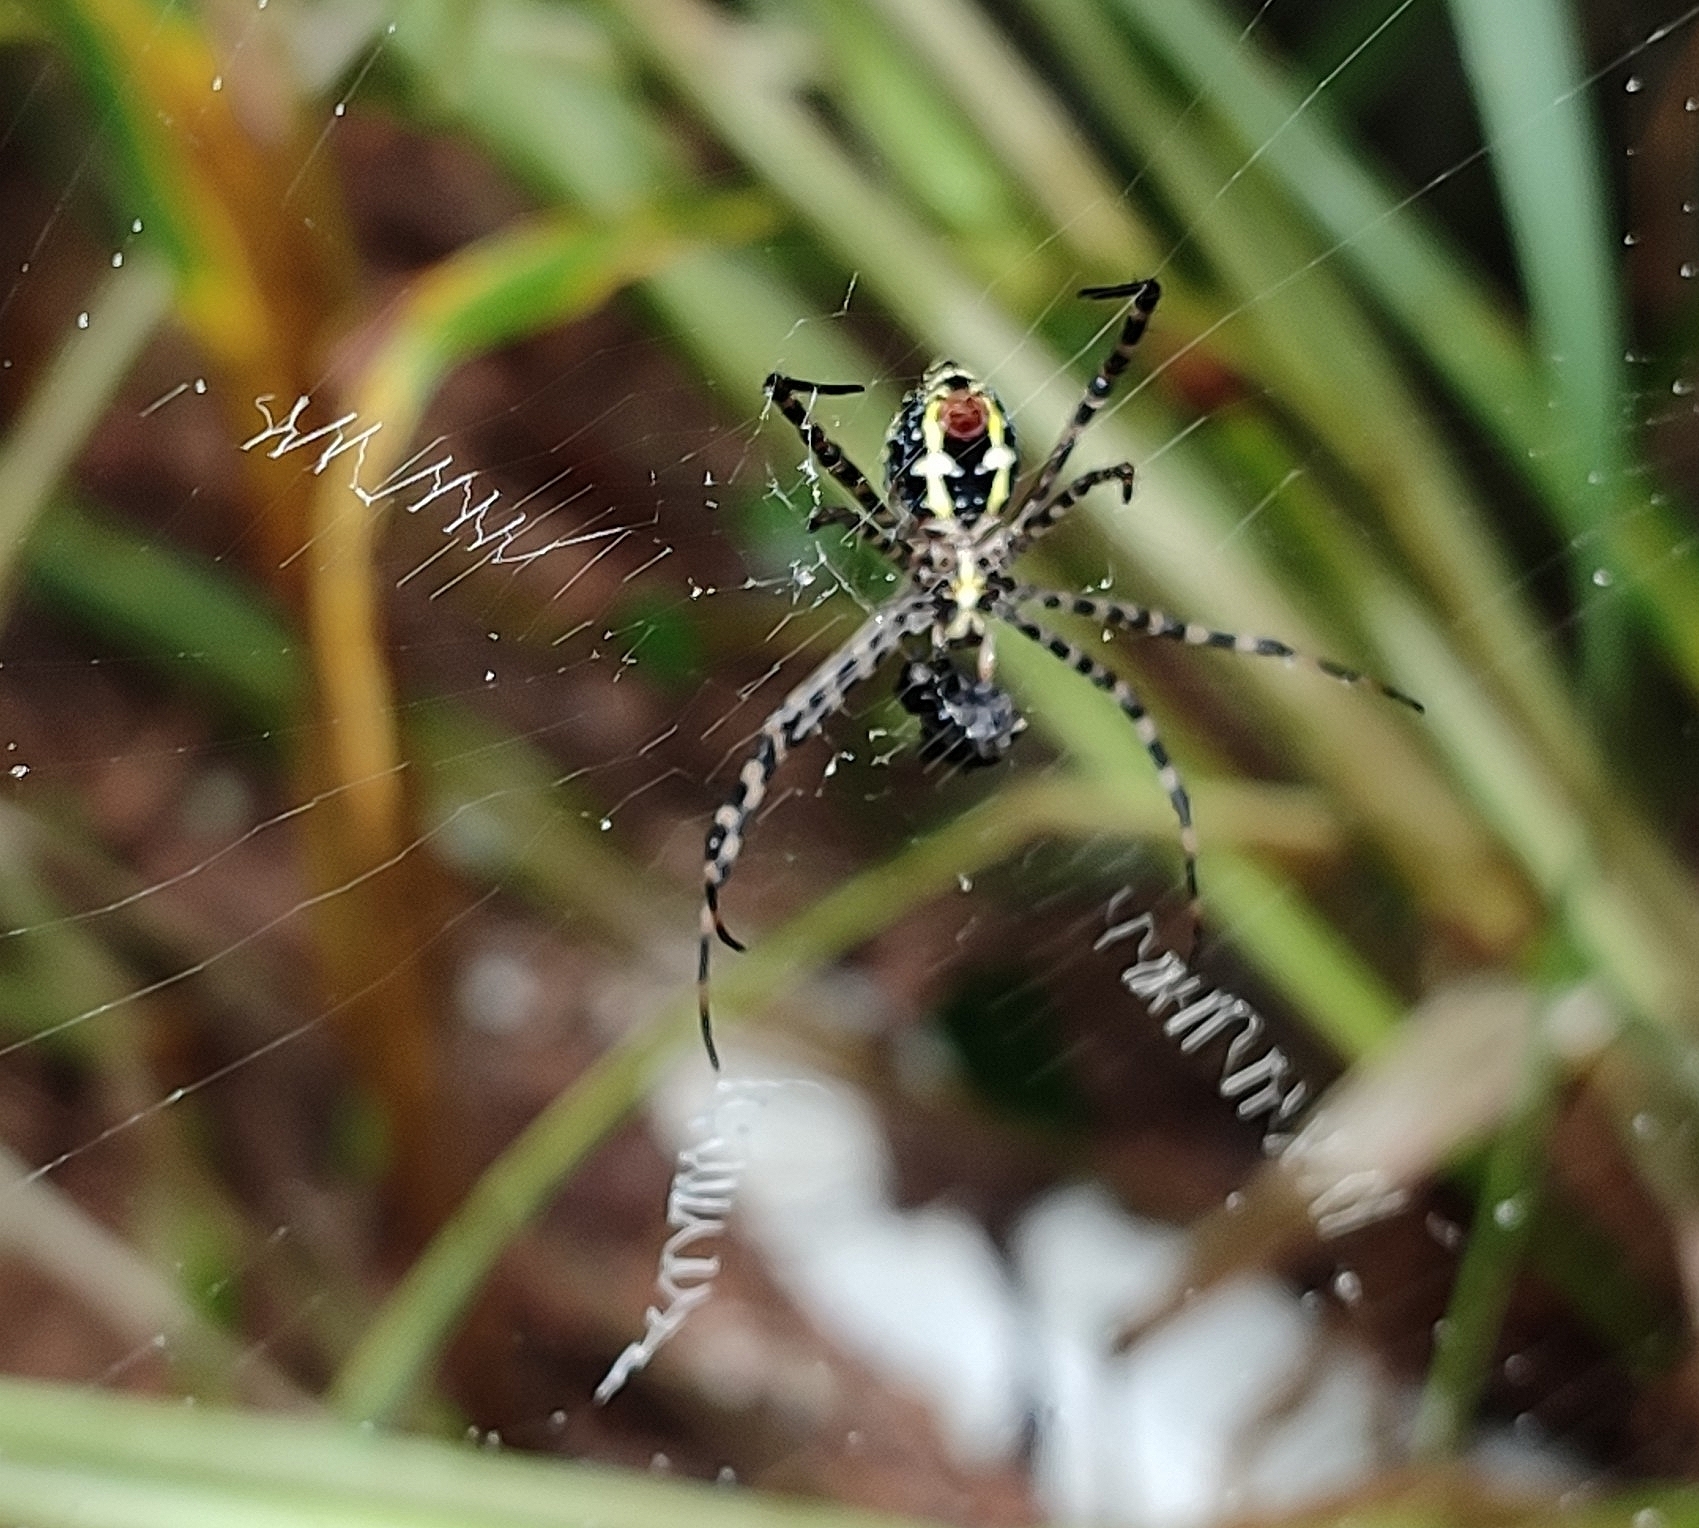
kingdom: Animalia
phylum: Arthropoda
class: Arachnida
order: Araneae
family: Araneidae
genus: Argiope
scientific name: Argiope aemula
